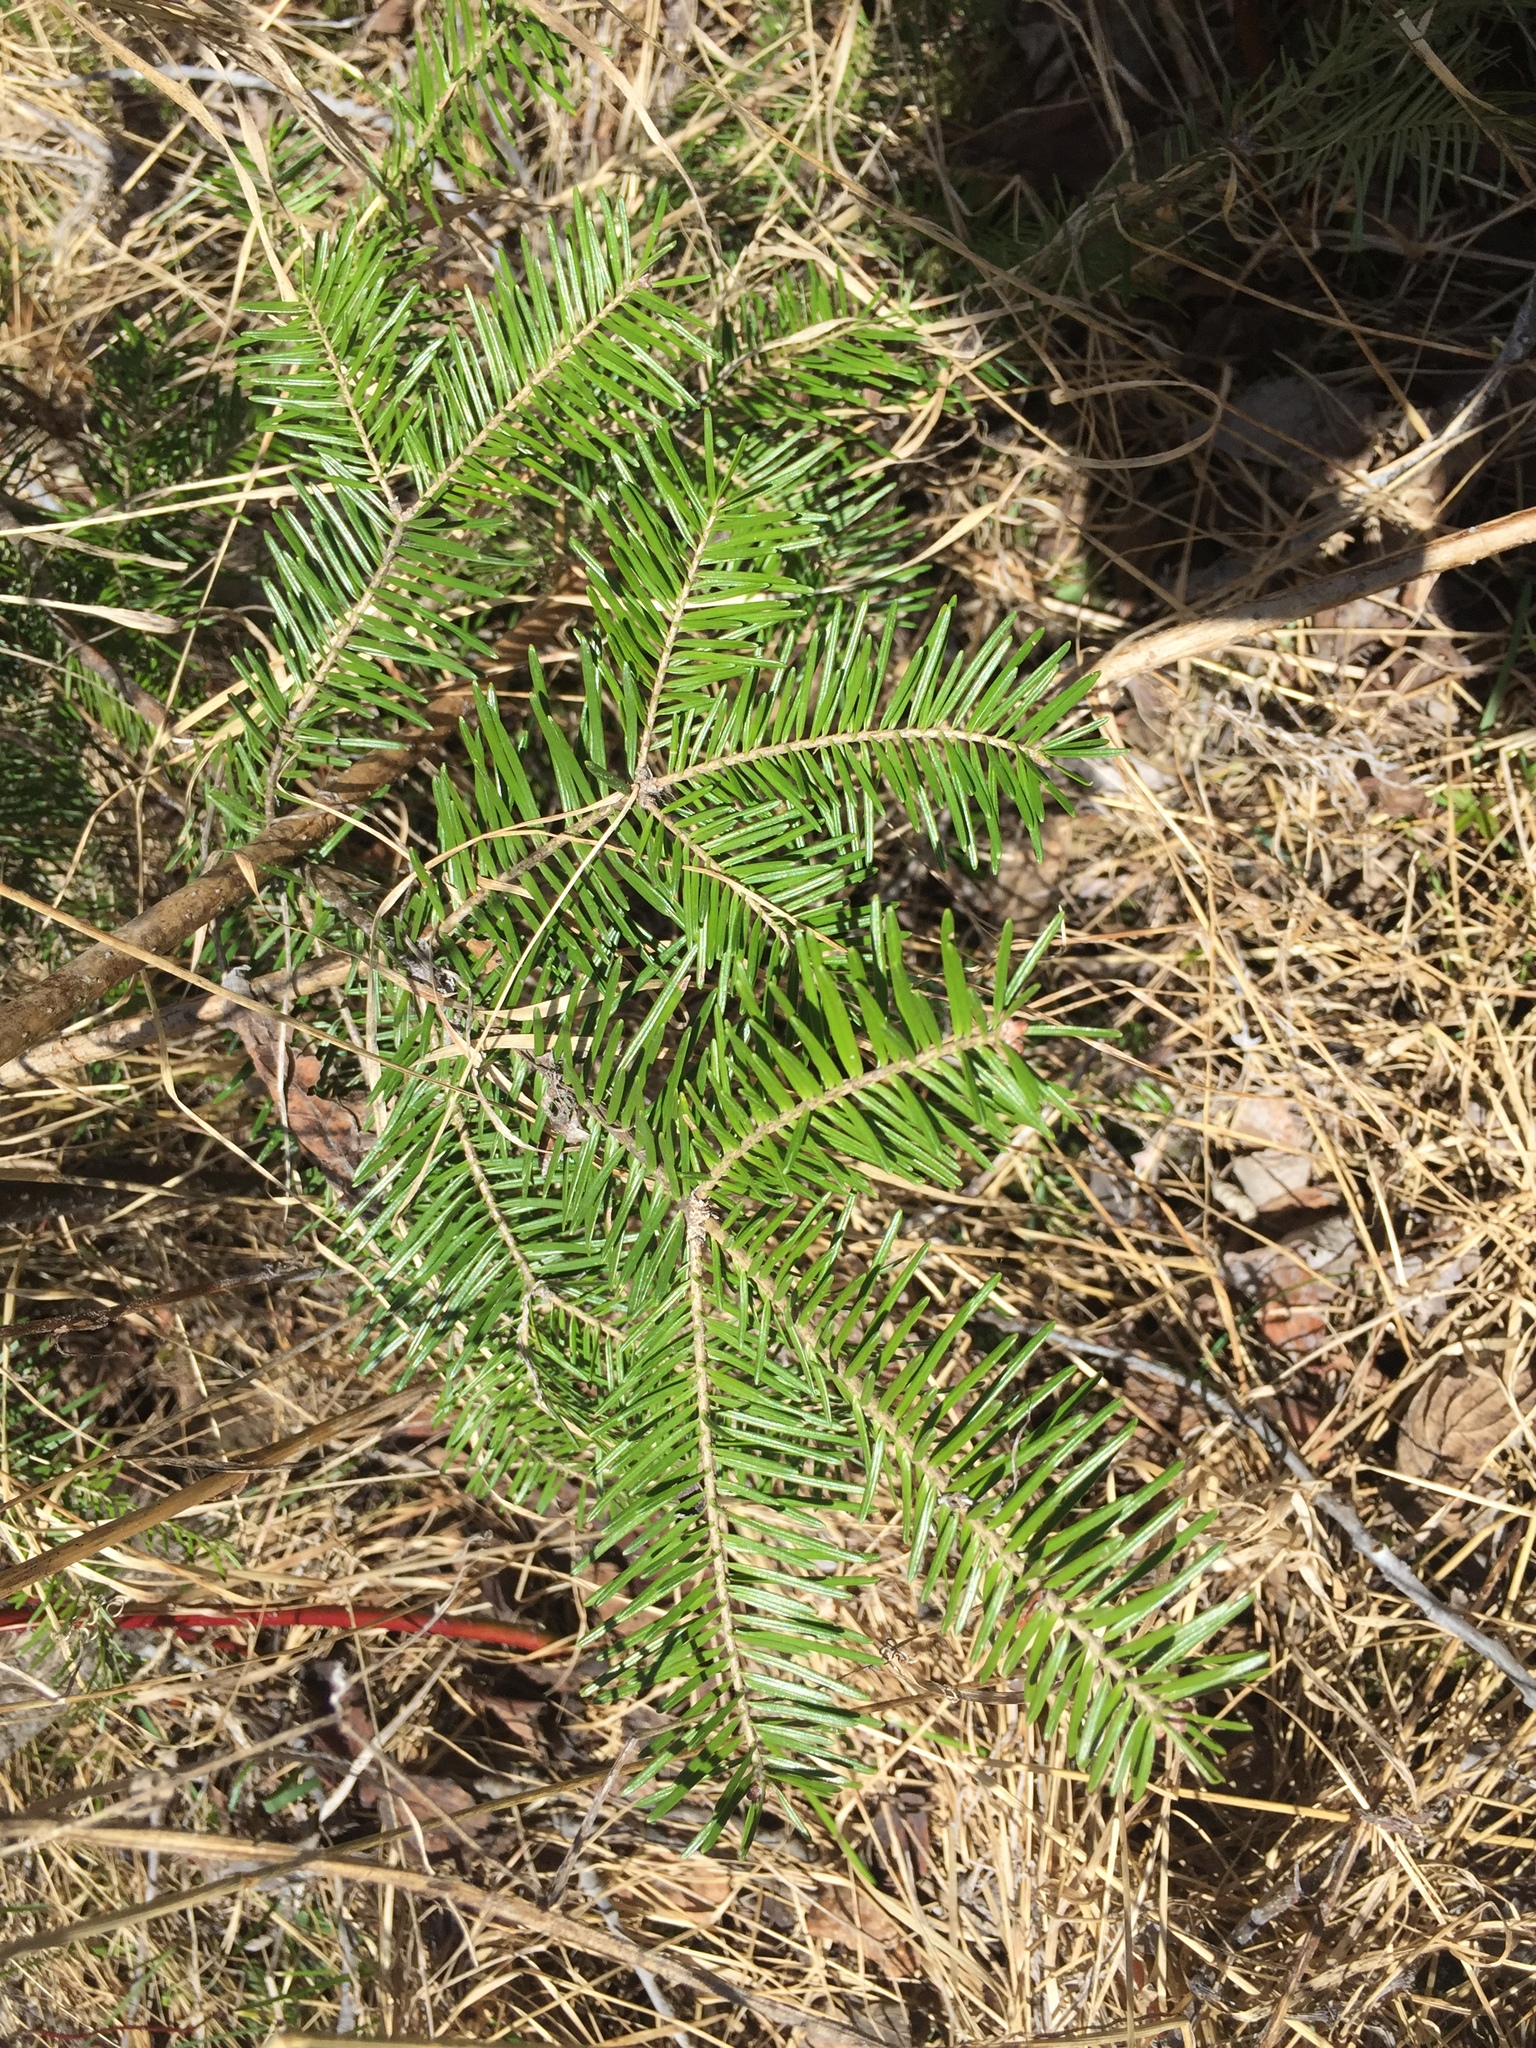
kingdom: Plantae
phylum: Tracheophyta
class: Pinopsida
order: Pinales
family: Pinaceae
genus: Abies
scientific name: Abies balsamea
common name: Balsam fir
